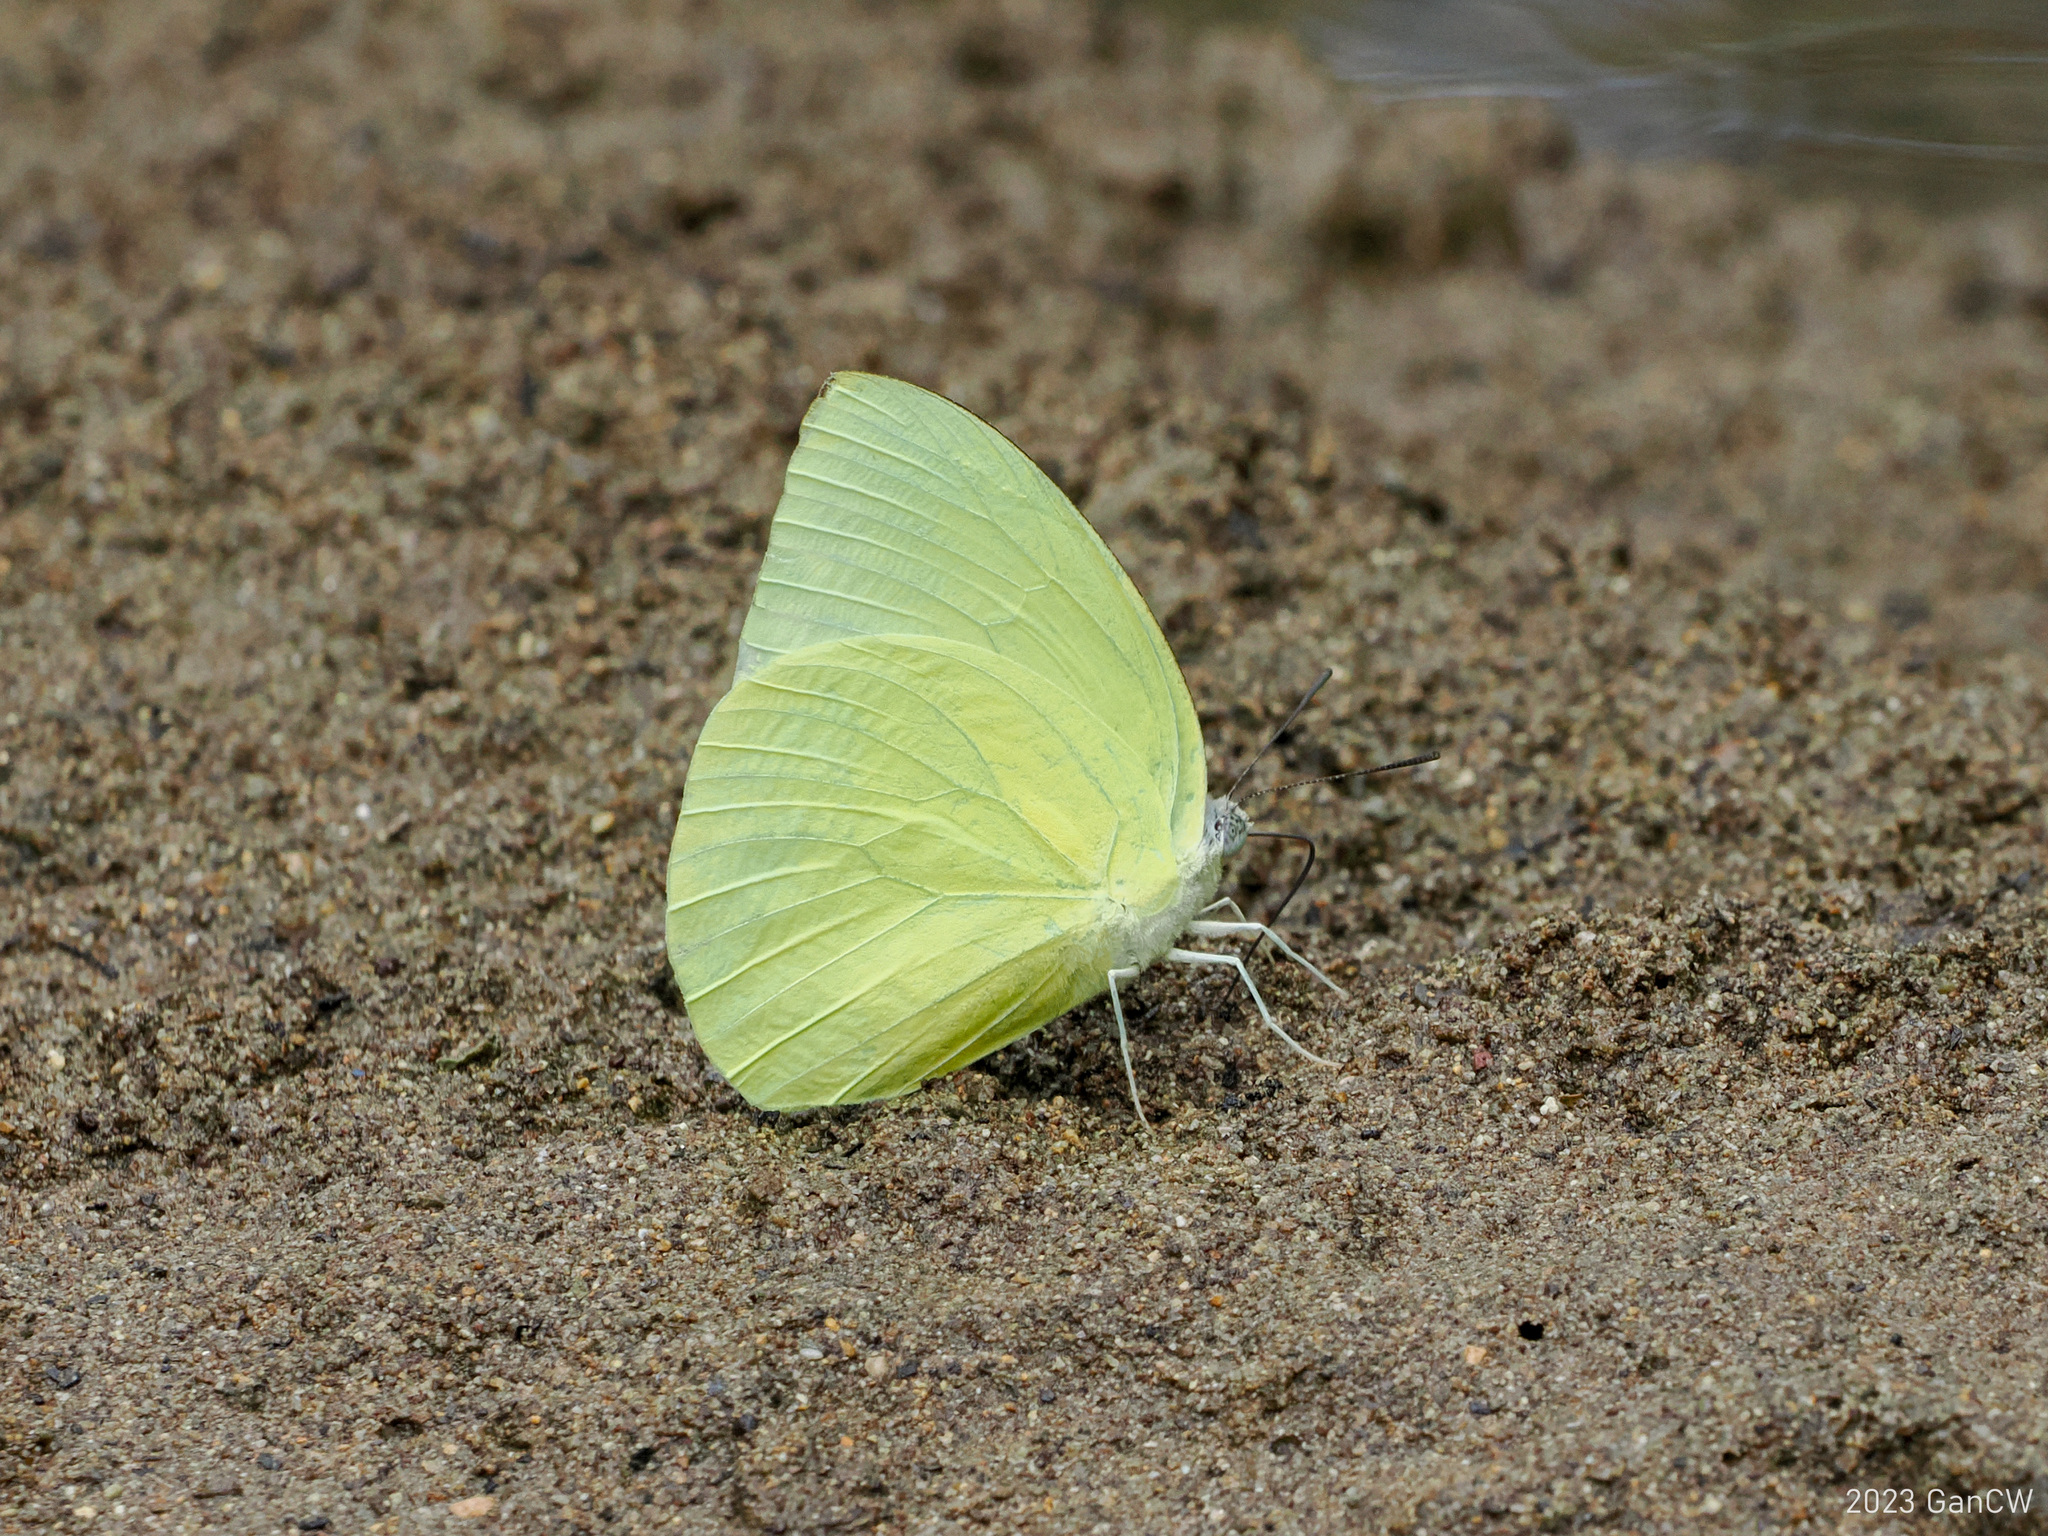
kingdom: Animalia
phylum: Arthropoda
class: Insecta
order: Lepidoptera
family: Pieridae
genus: Catopsilia
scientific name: Catopsilia pomona
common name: Common emigrant
